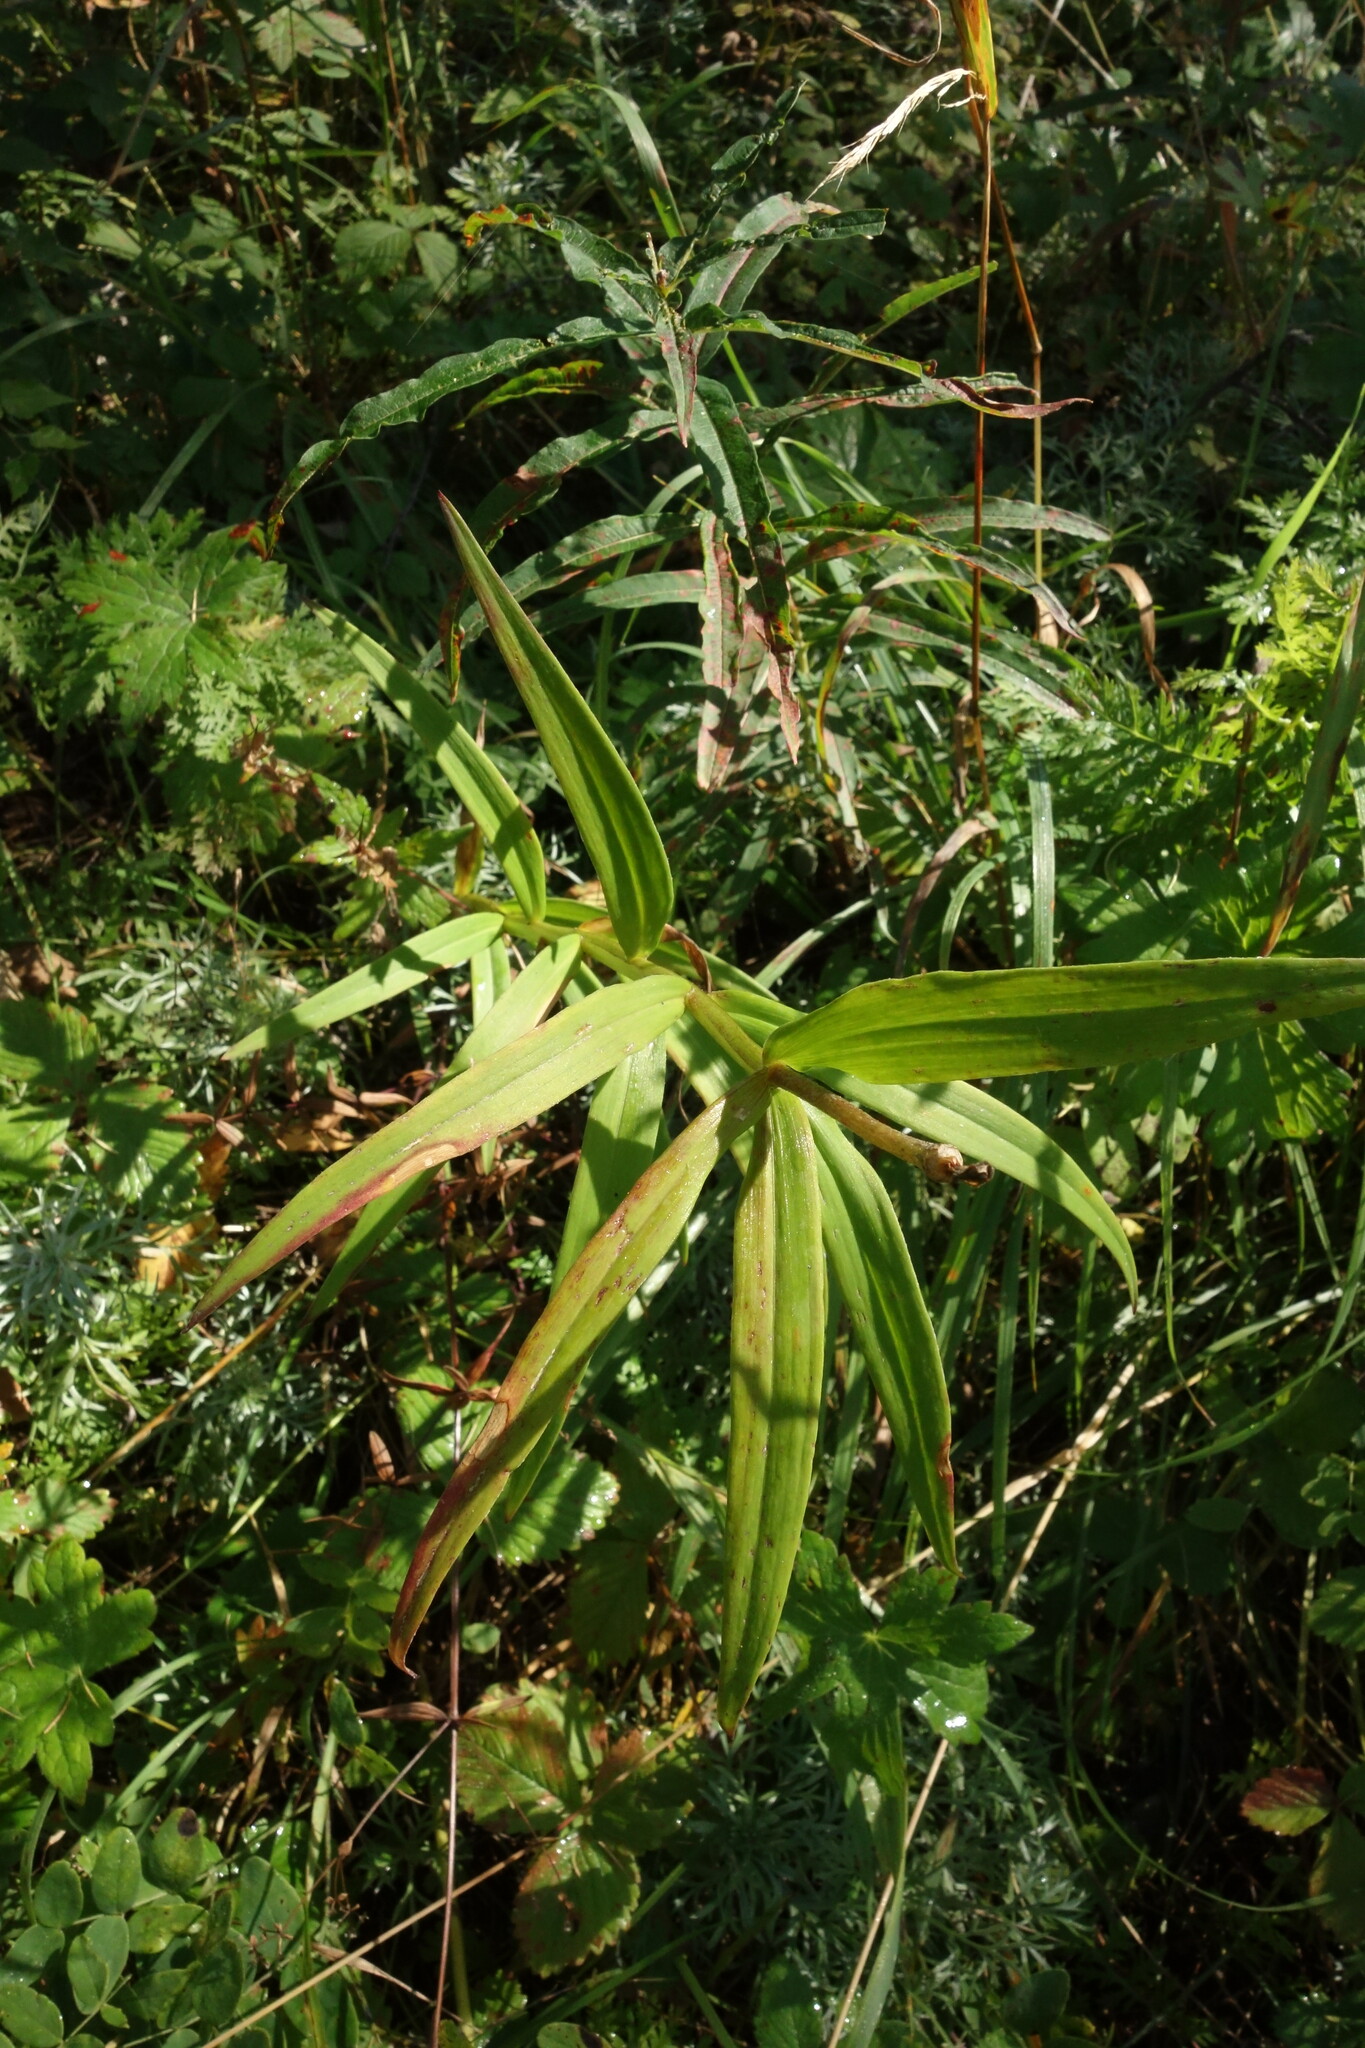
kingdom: Plantae
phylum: Tracheophyta
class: Liliopsida
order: Liliales
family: Liliaceae
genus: Lilium
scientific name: Lilium pensylvanicum
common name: Candlestick lily
